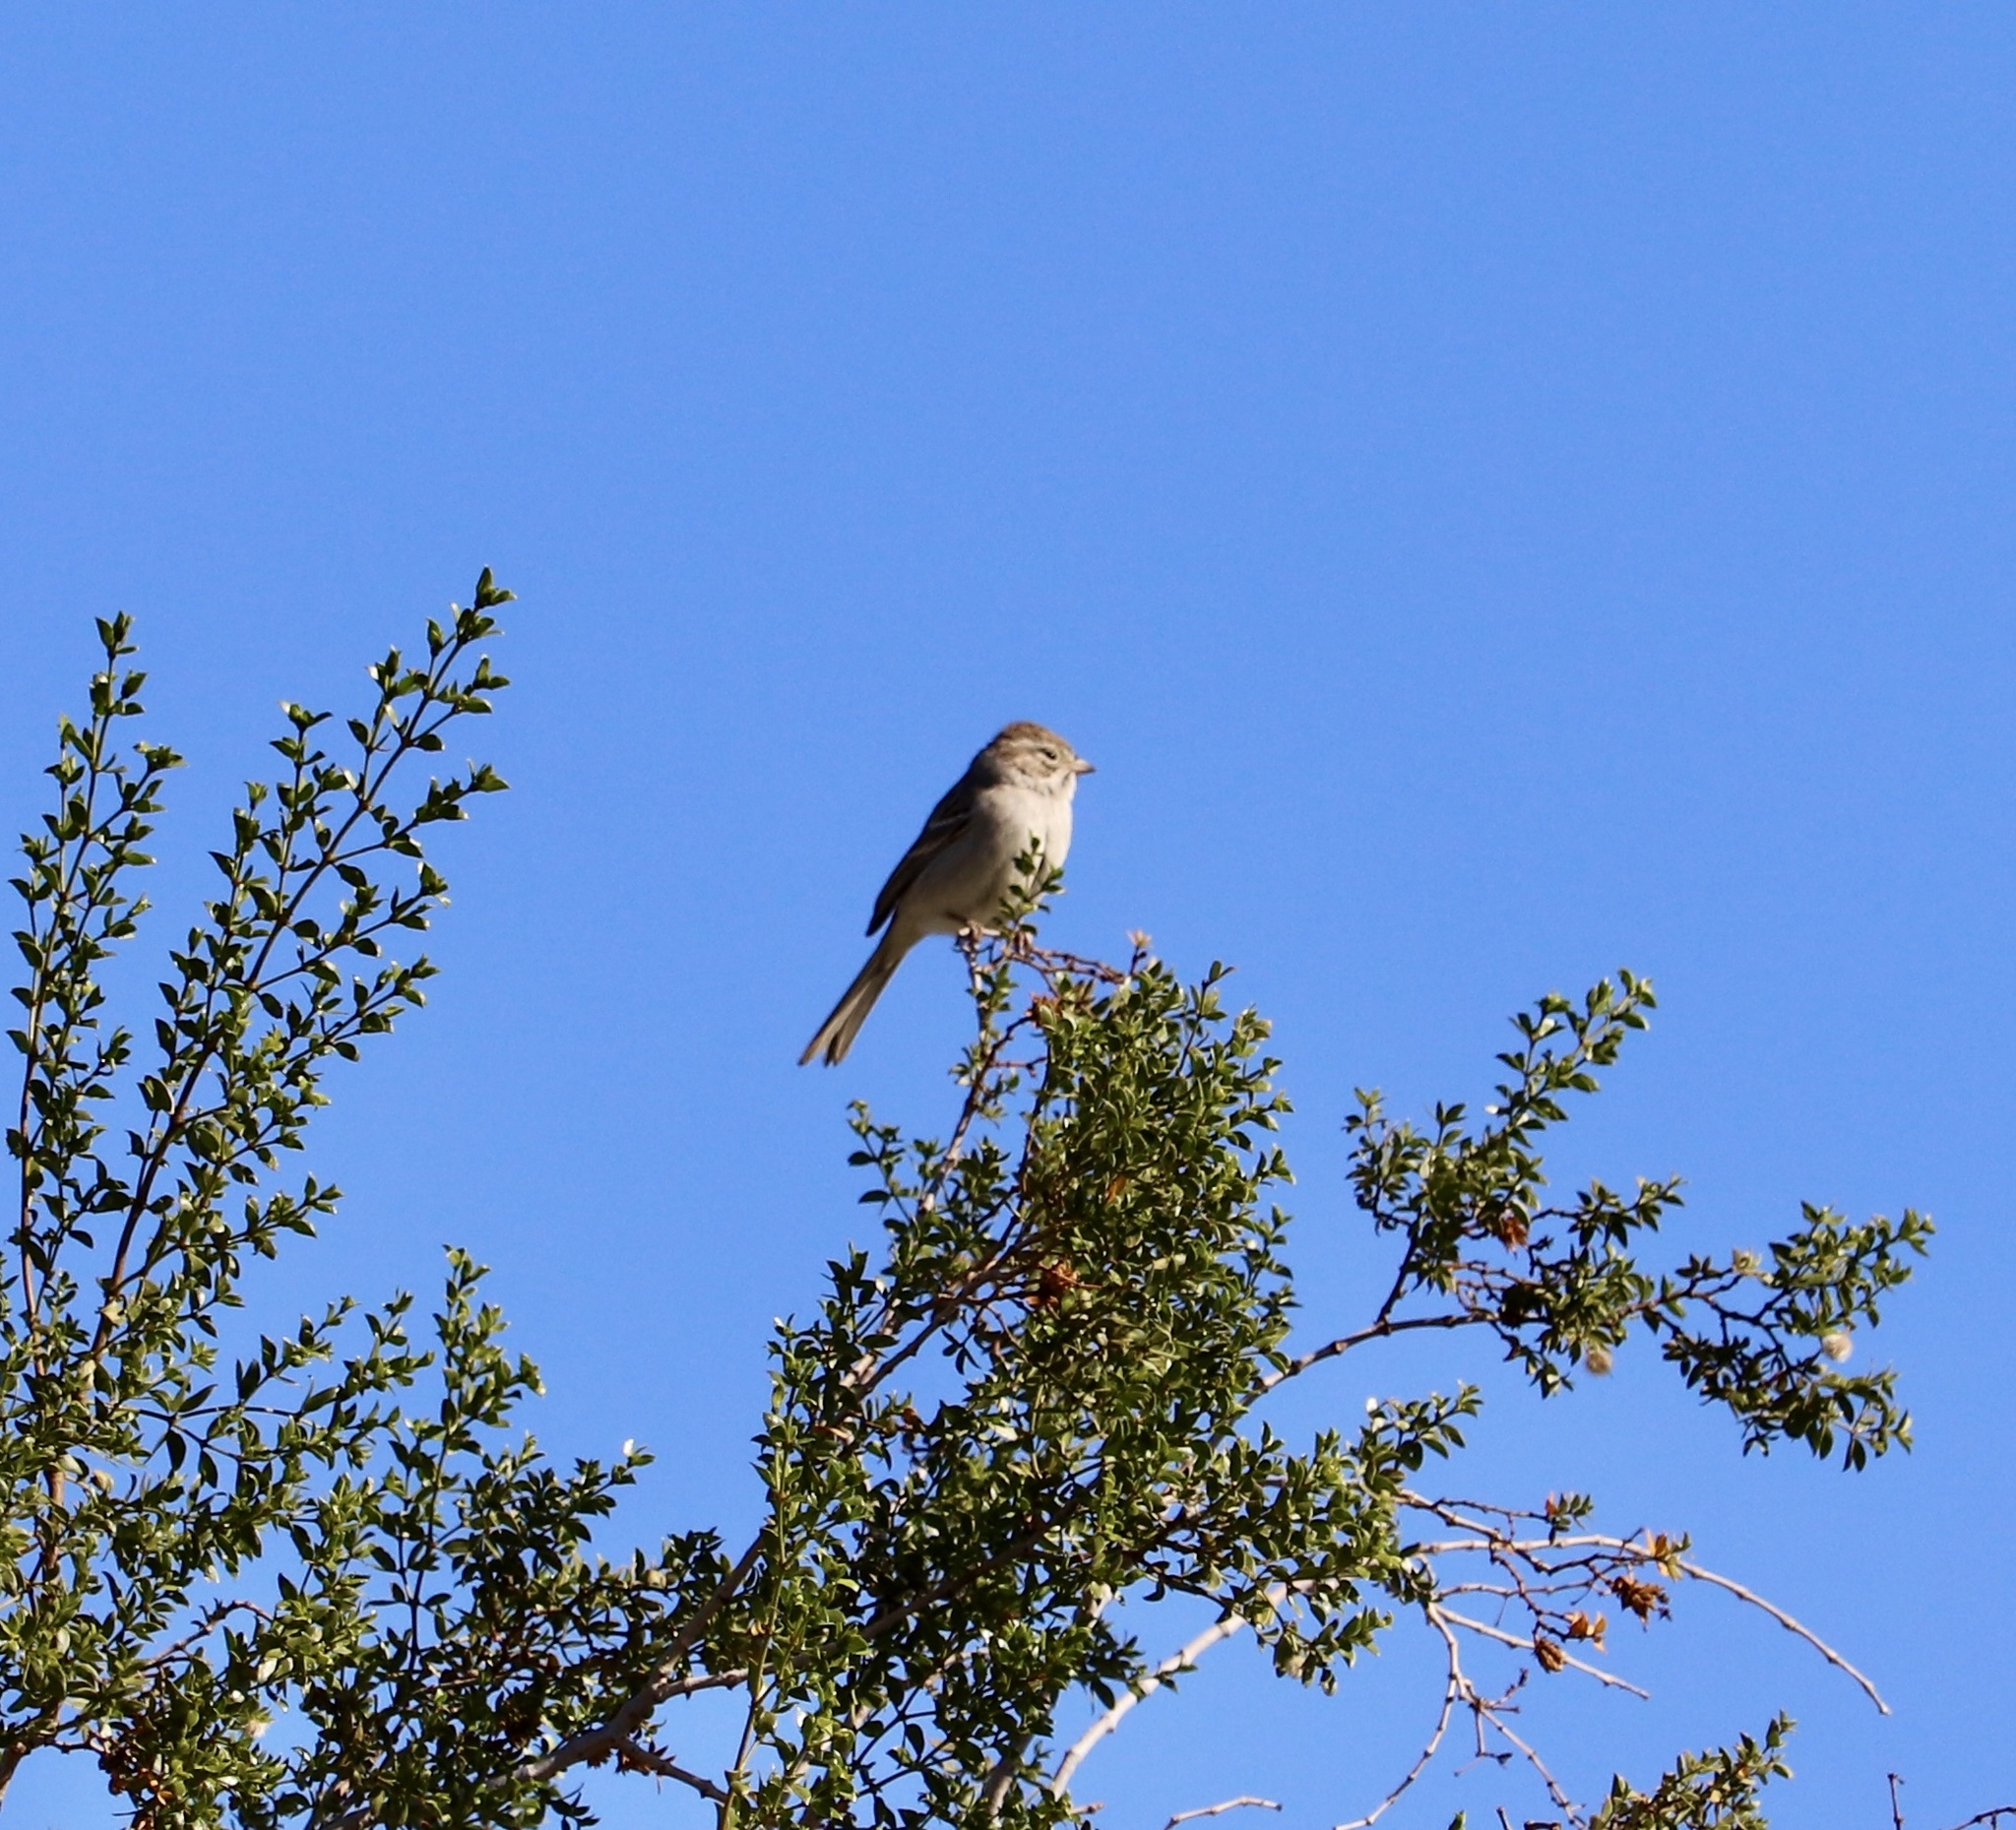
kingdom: Animalia
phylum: Chordata
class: Aves
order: Passeriformes
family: Passerellidae
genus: Spizella
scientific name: Spizella breweri
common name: Brewer's sparrow
